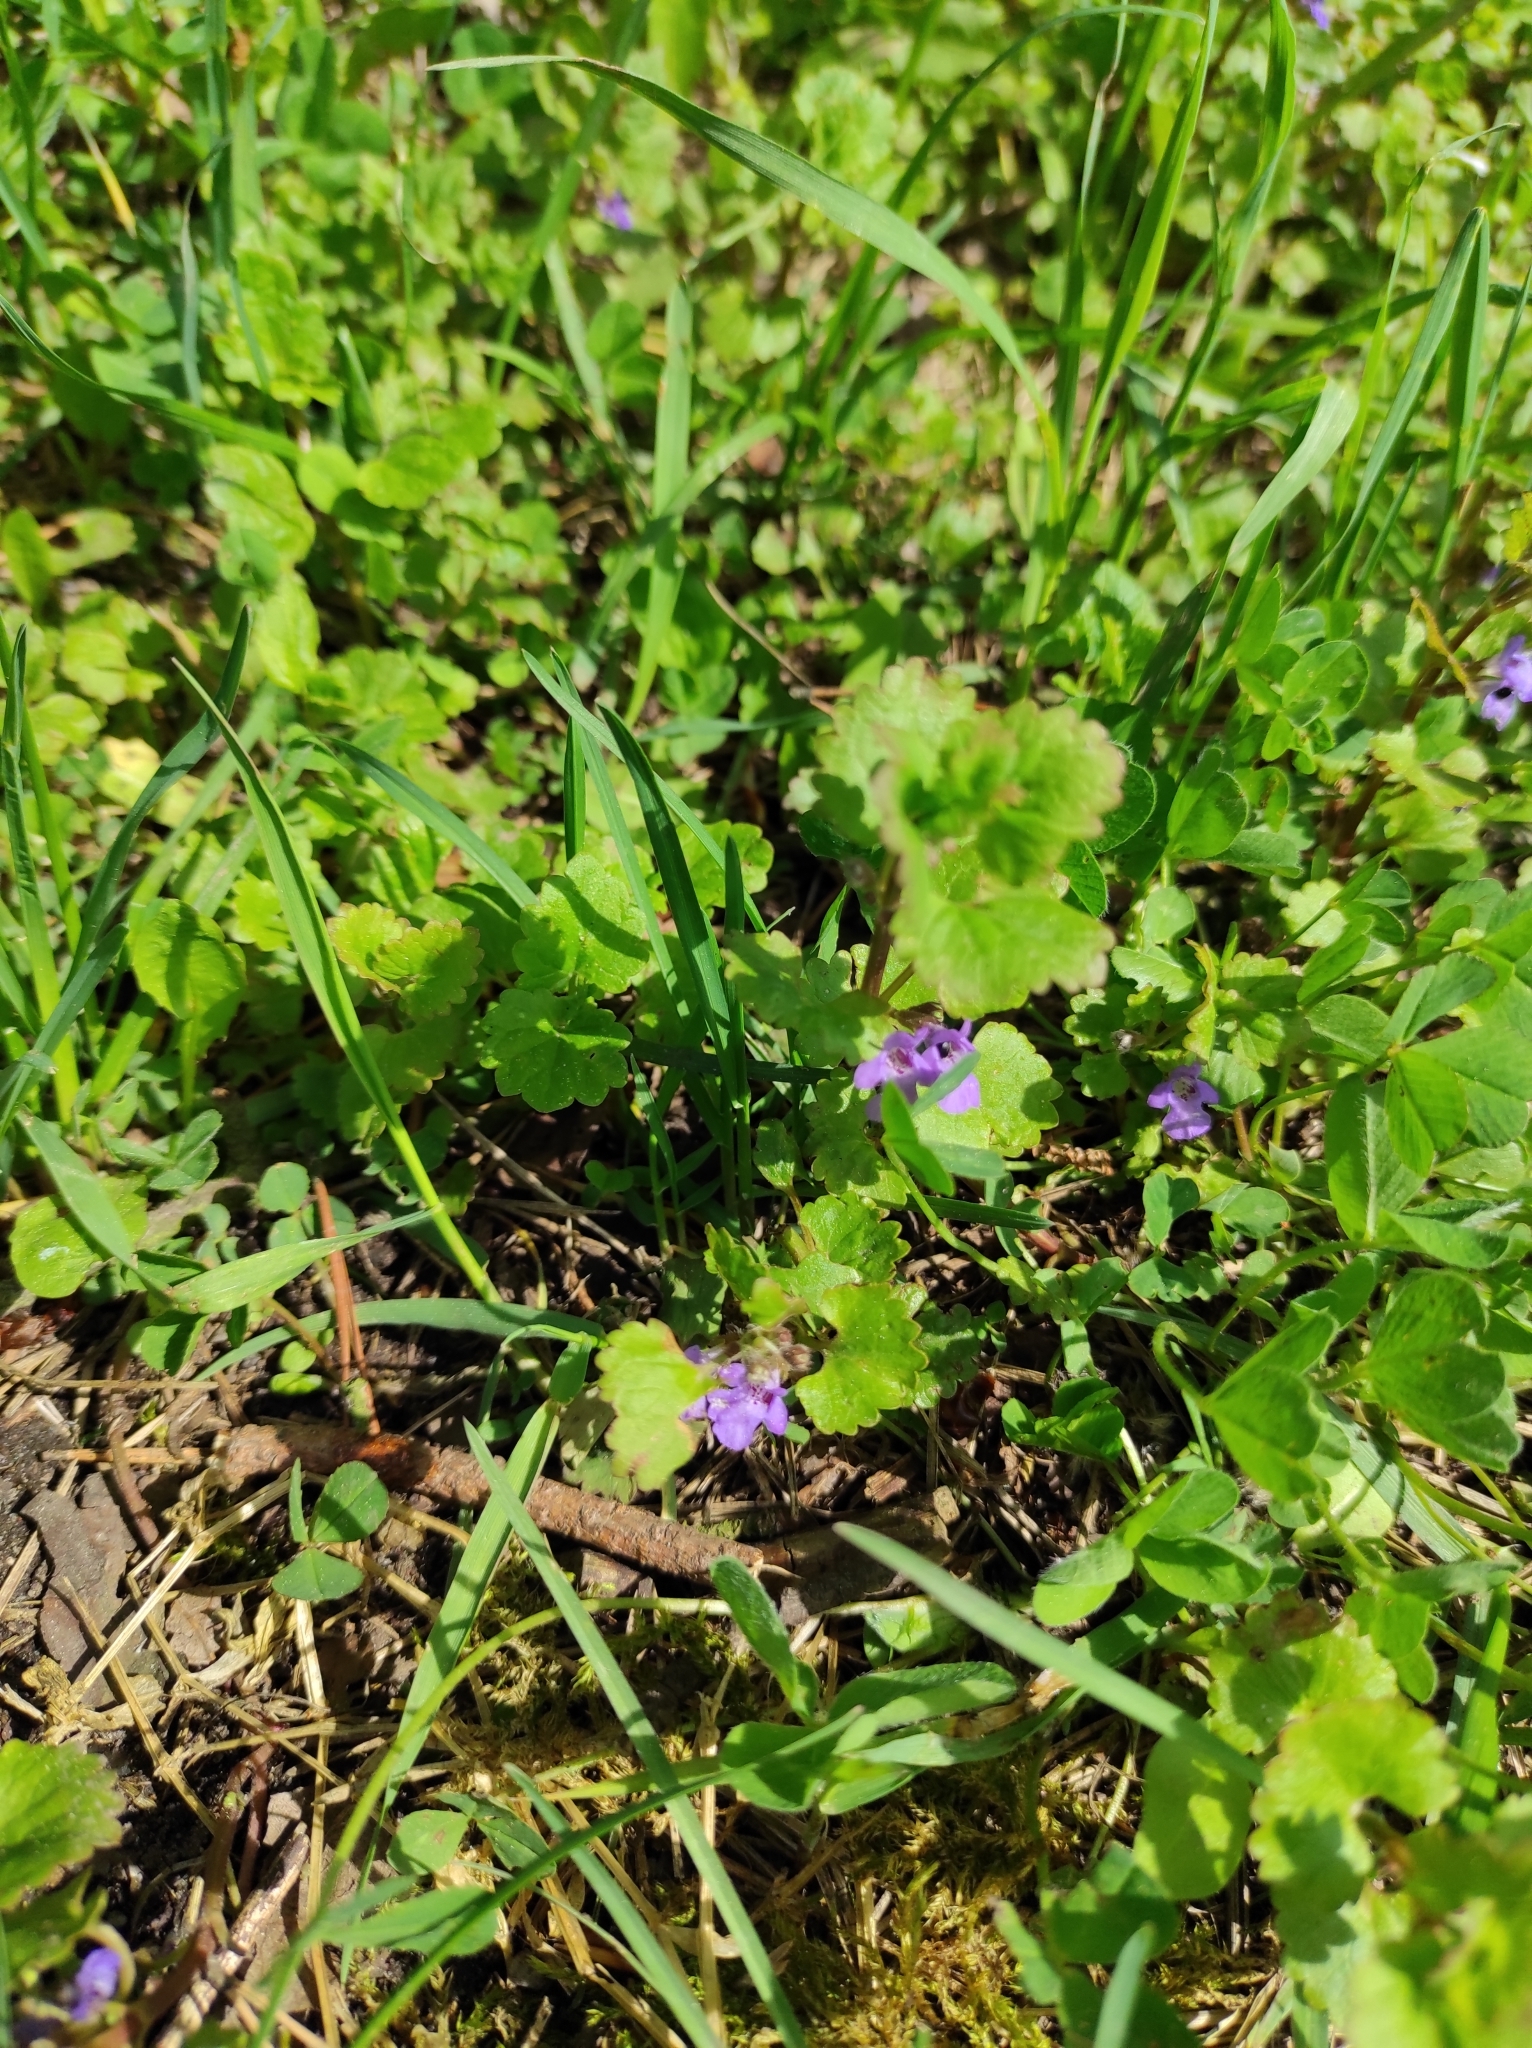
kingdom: Plantae
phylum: Tracheophyta
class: Magnoliopsida
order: Lamiales
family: Lamiaceae
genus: Glechoma
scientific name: Glechoma hederacea
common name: Ground ivy
